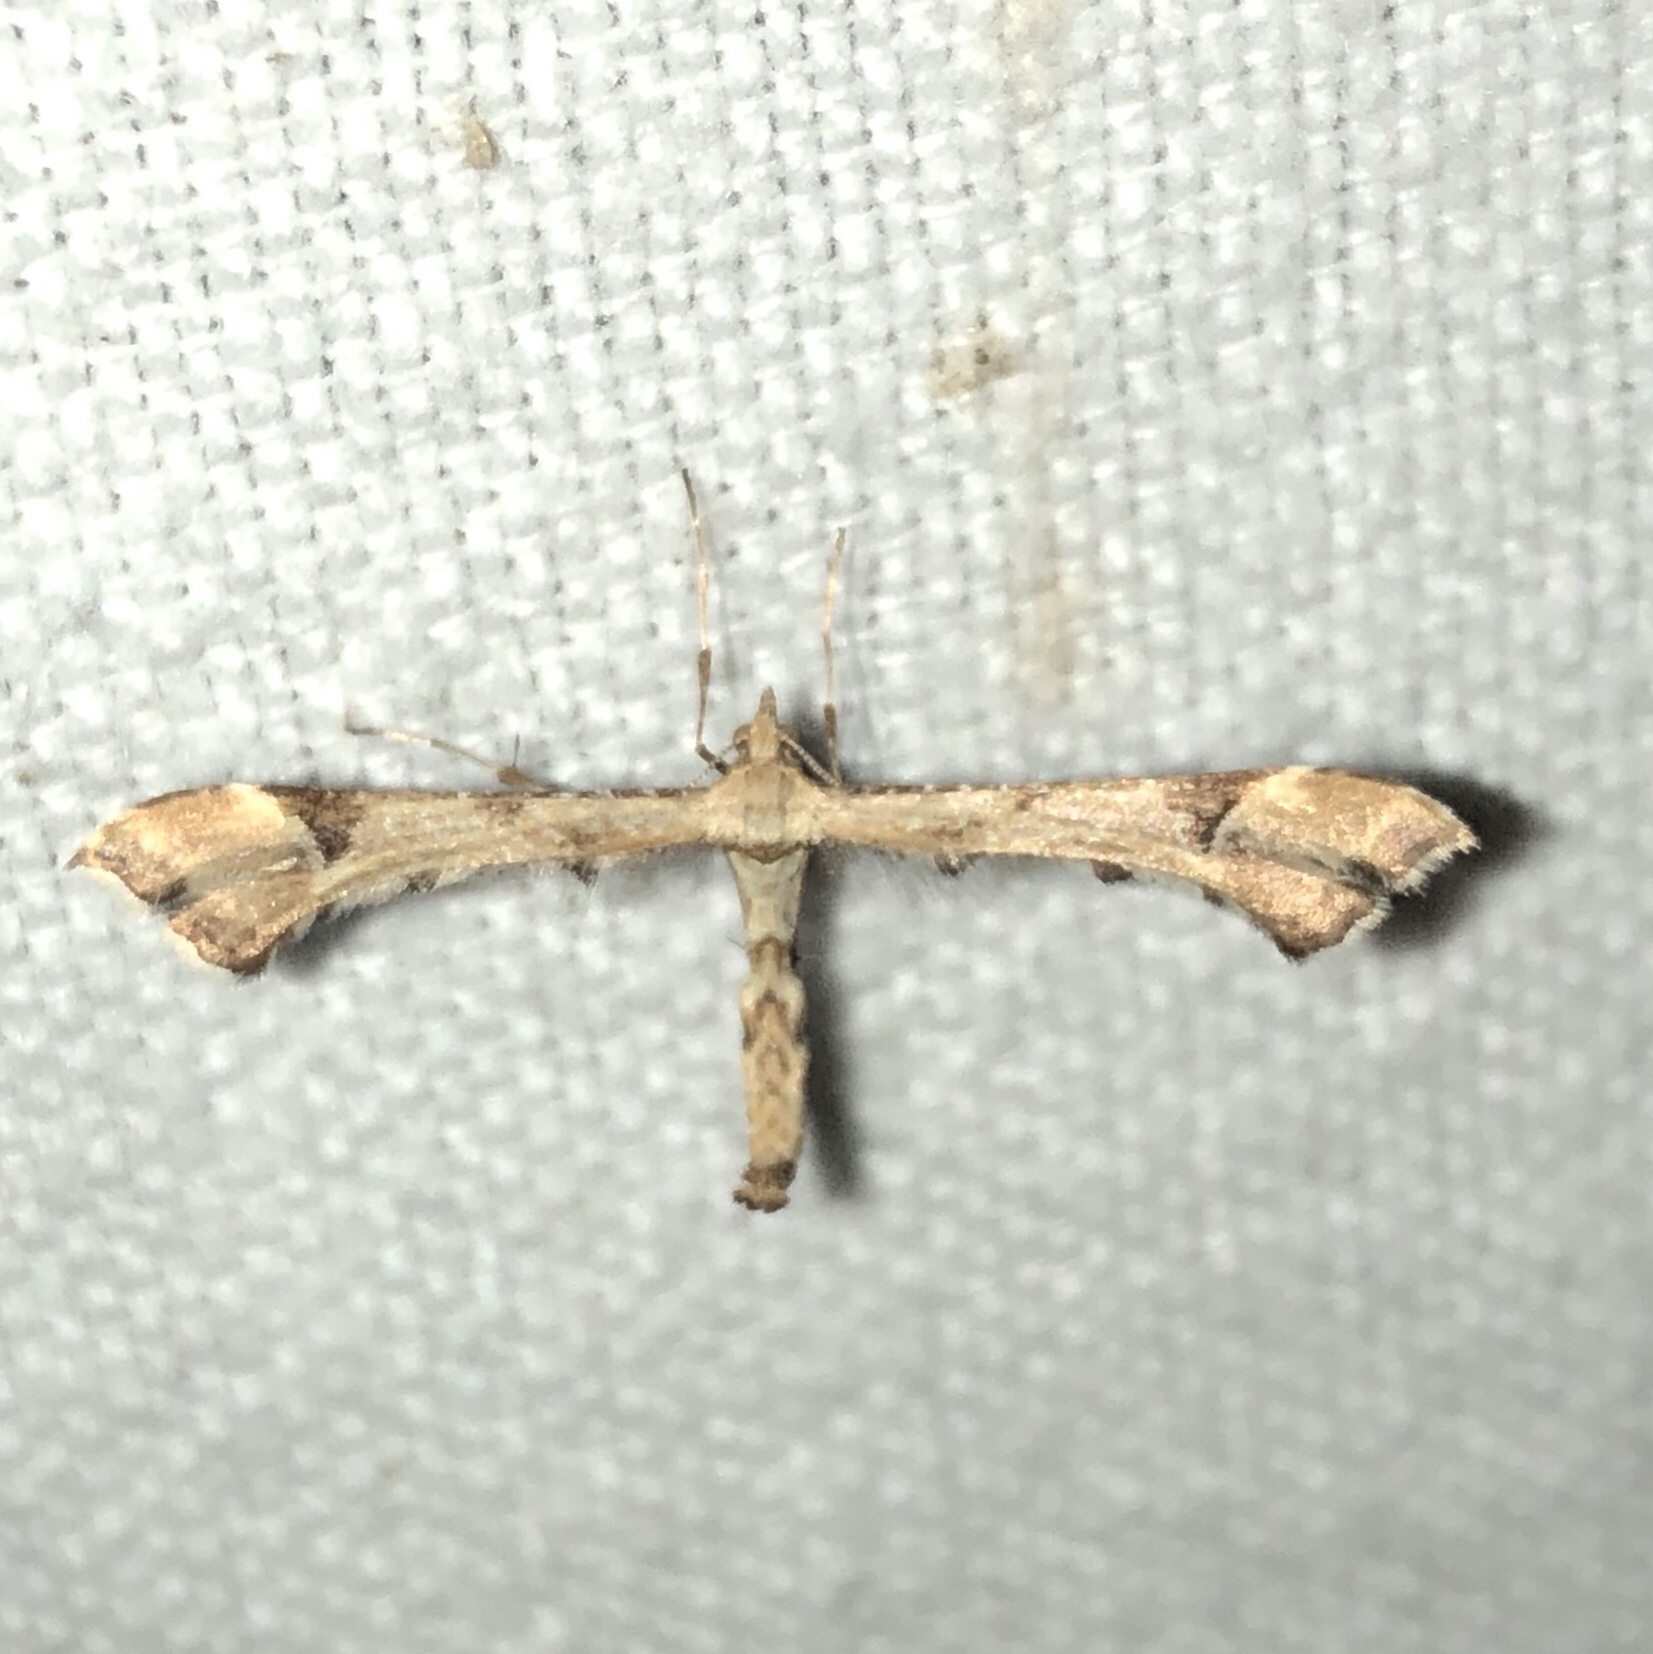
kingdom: Animalia
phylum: Arthropoda
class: Insecta
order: Lepidoptera
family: Pterophoridae
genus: Platyptilia
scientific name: Platyptilia carduidactylus
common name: Artichoke plume moth
